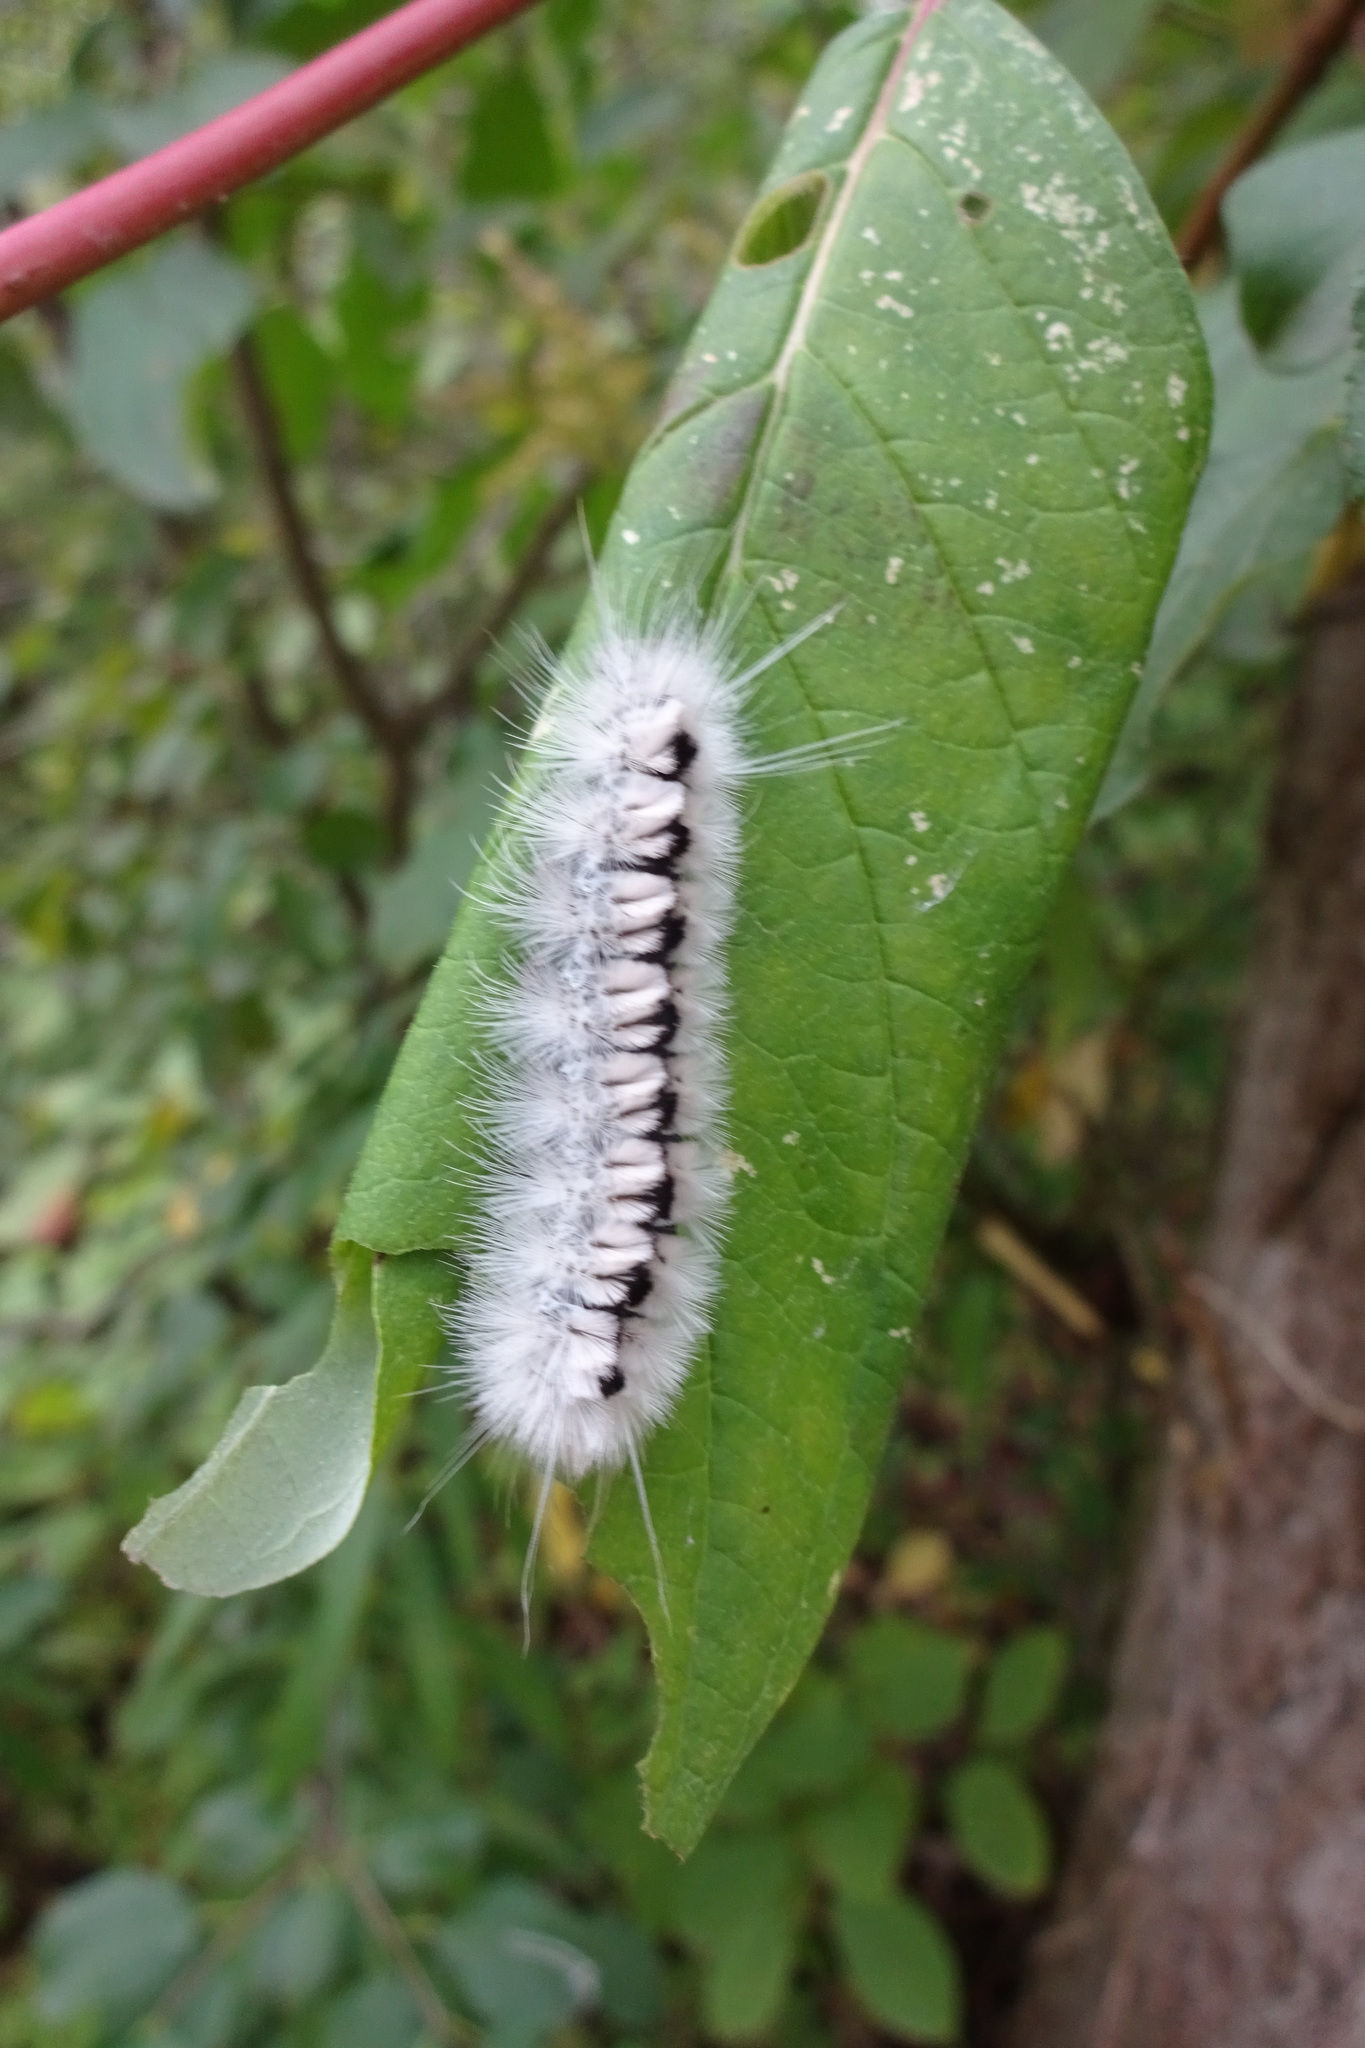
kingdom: Animalia
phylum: Arthropoda
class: Insecta
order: Lepidoptera
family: Erebidae
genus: Lophocampa
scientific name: Lophocampa caryae
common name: Hickory tussock moth
